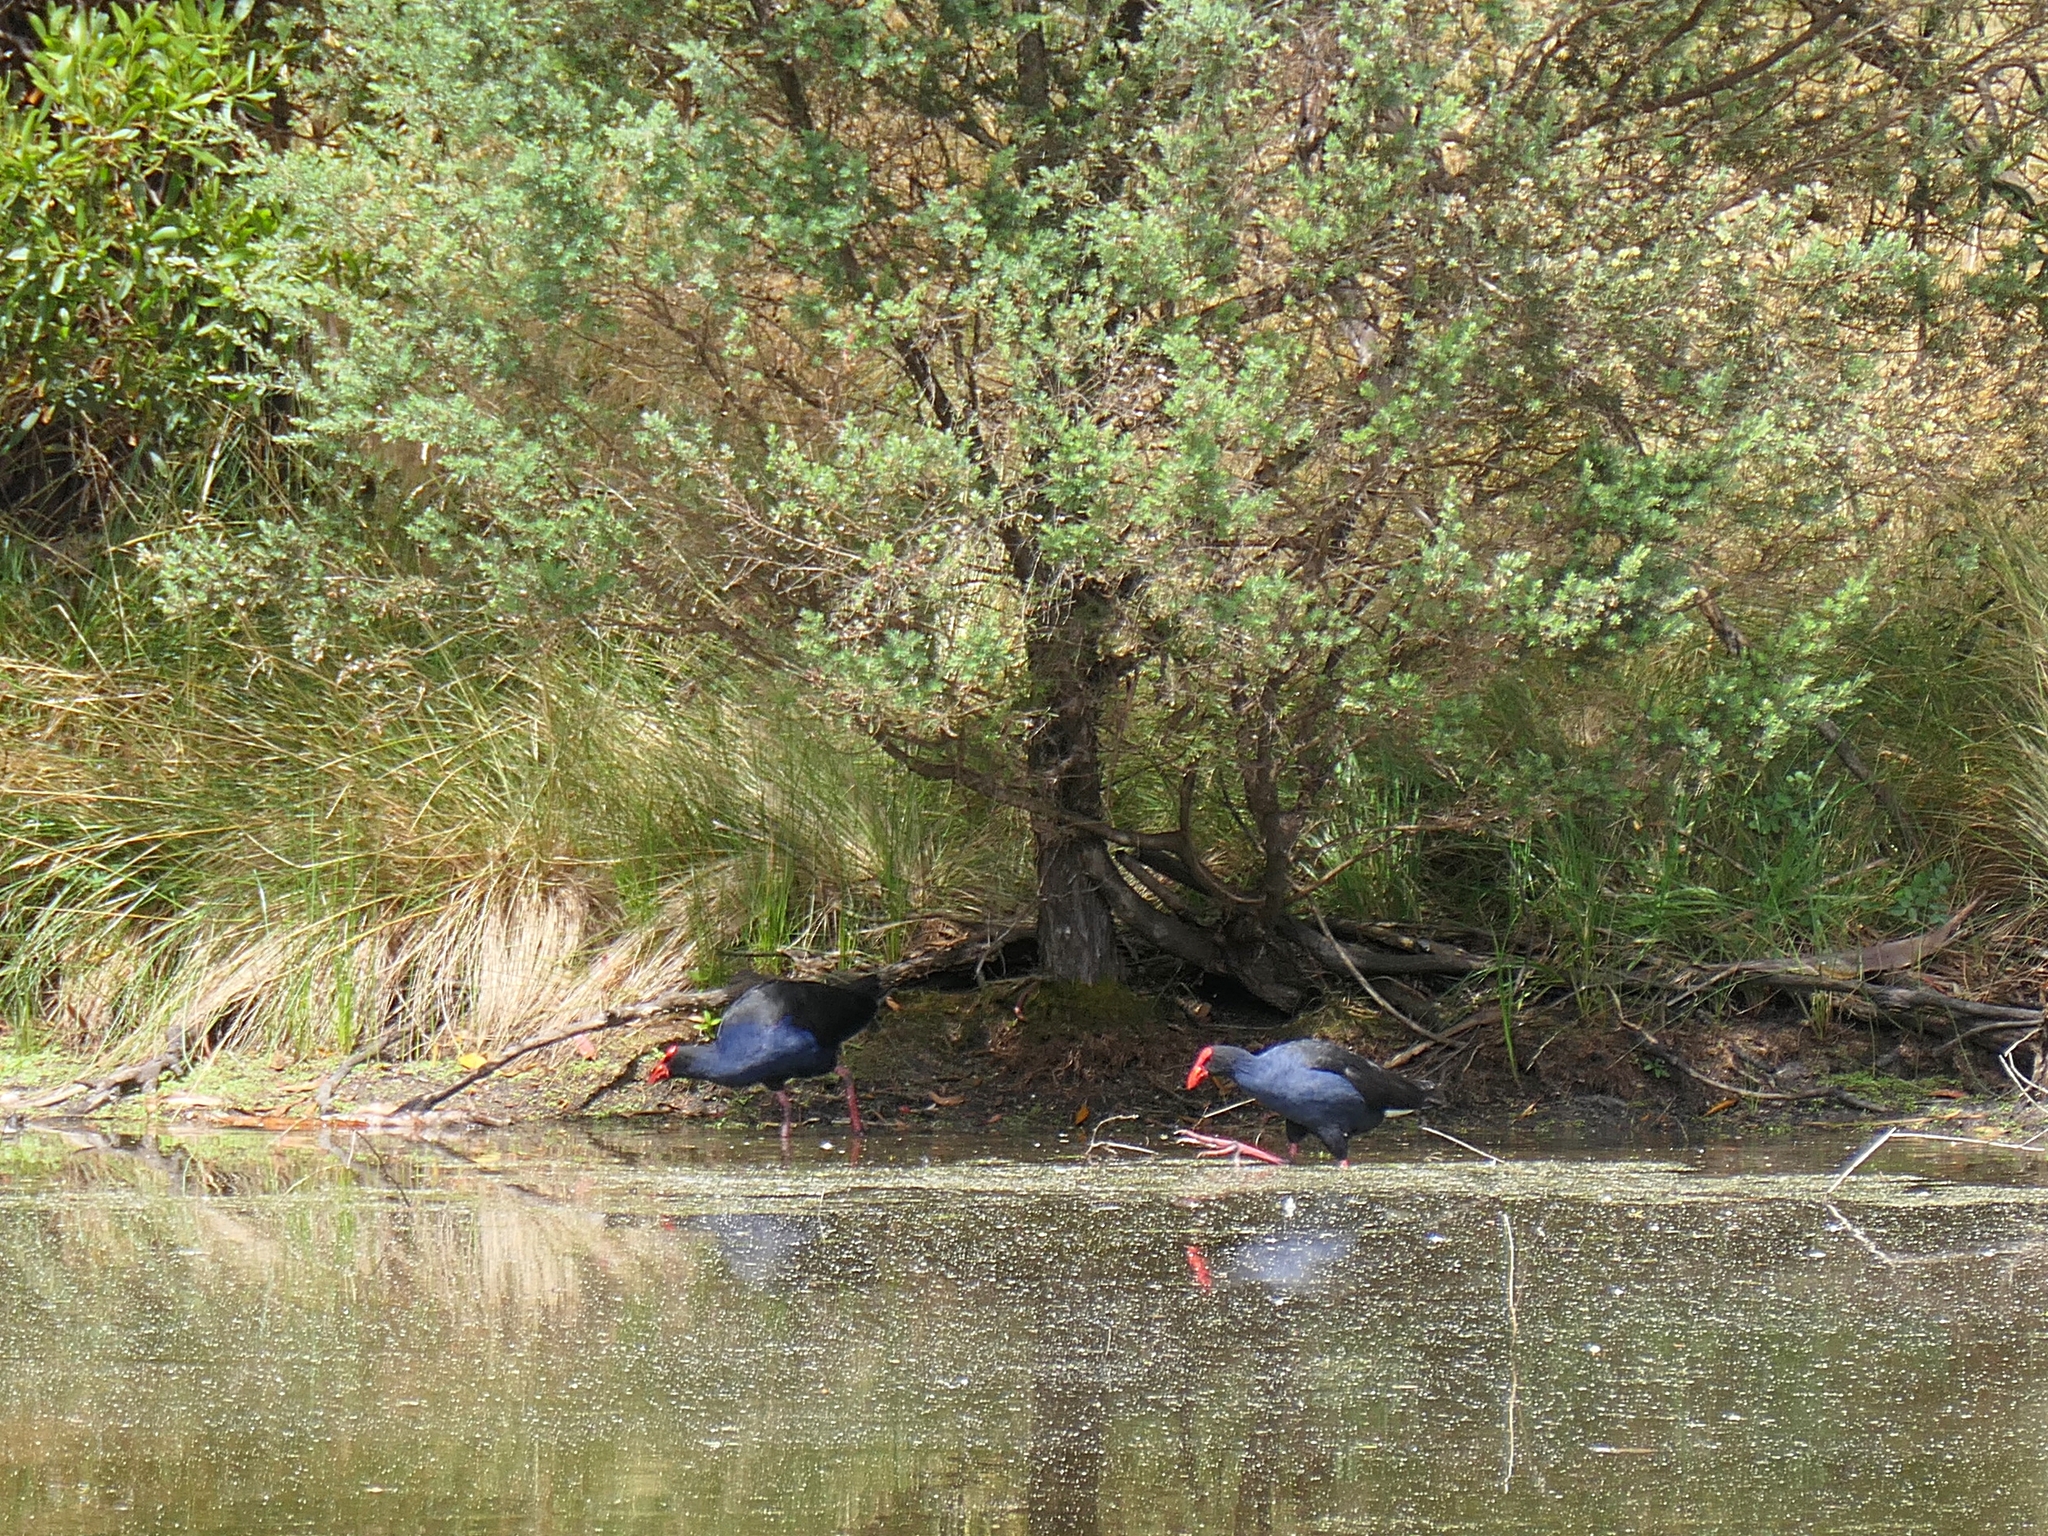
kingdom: Animalia
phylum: Chordata
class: Aves
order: Gruiformes
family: Rallidae
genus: Porphyrio
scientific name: Porphyrio melanotus
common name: Australasian swamphen
